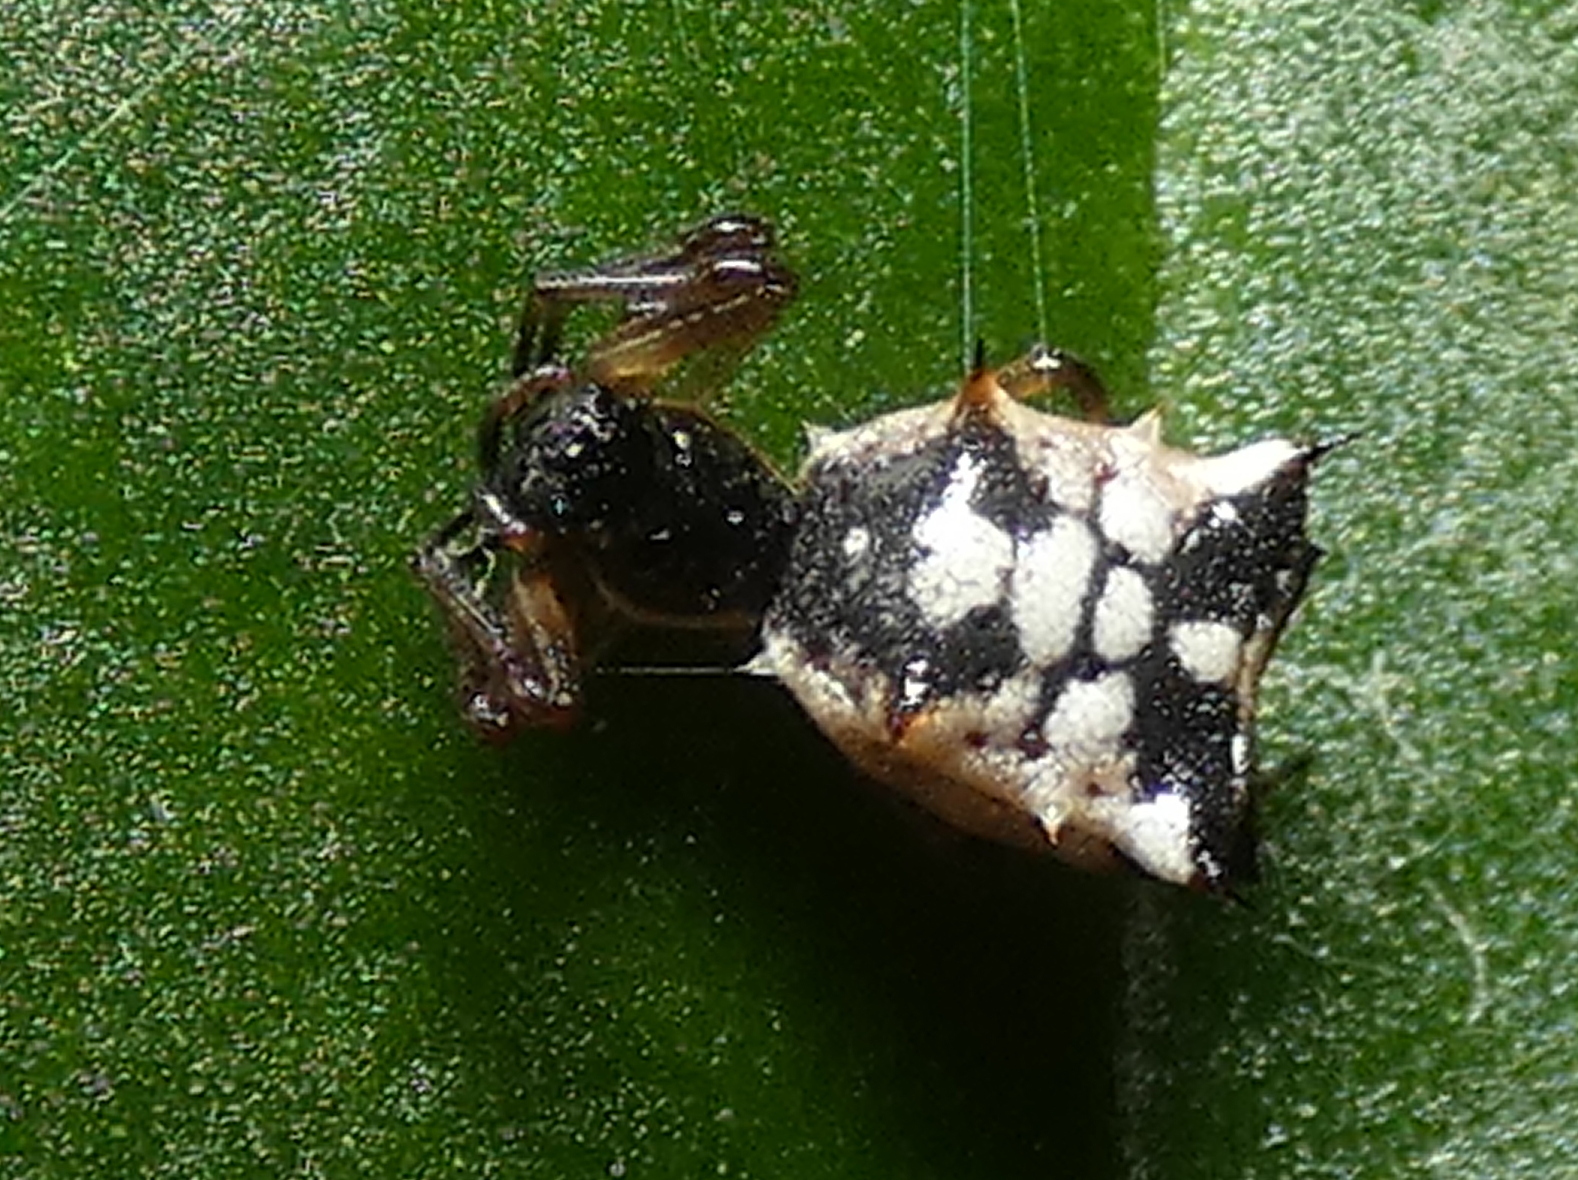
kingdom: Animalia
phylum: Arthropoda
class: Arachnida
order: Araneae
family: Araneidae
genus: Micrathena
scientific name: Micrathena picta
